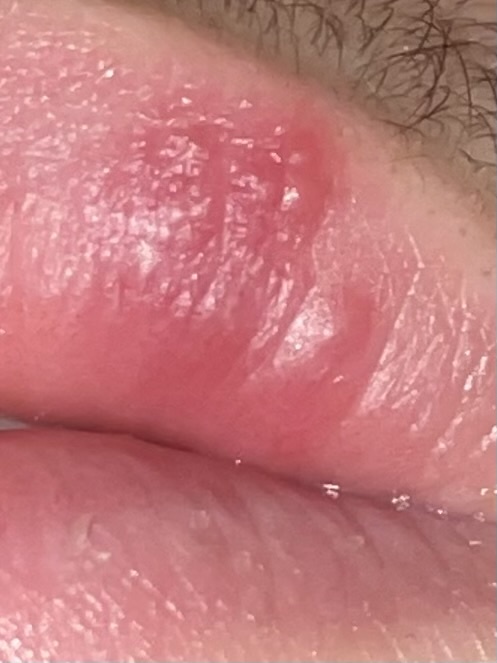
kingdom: Viruses
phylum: Peploviricota
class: Herviviricetes
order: Herpesvirales
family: Herpesviridae
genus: Simplexvirus
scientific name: Simplexvirus
